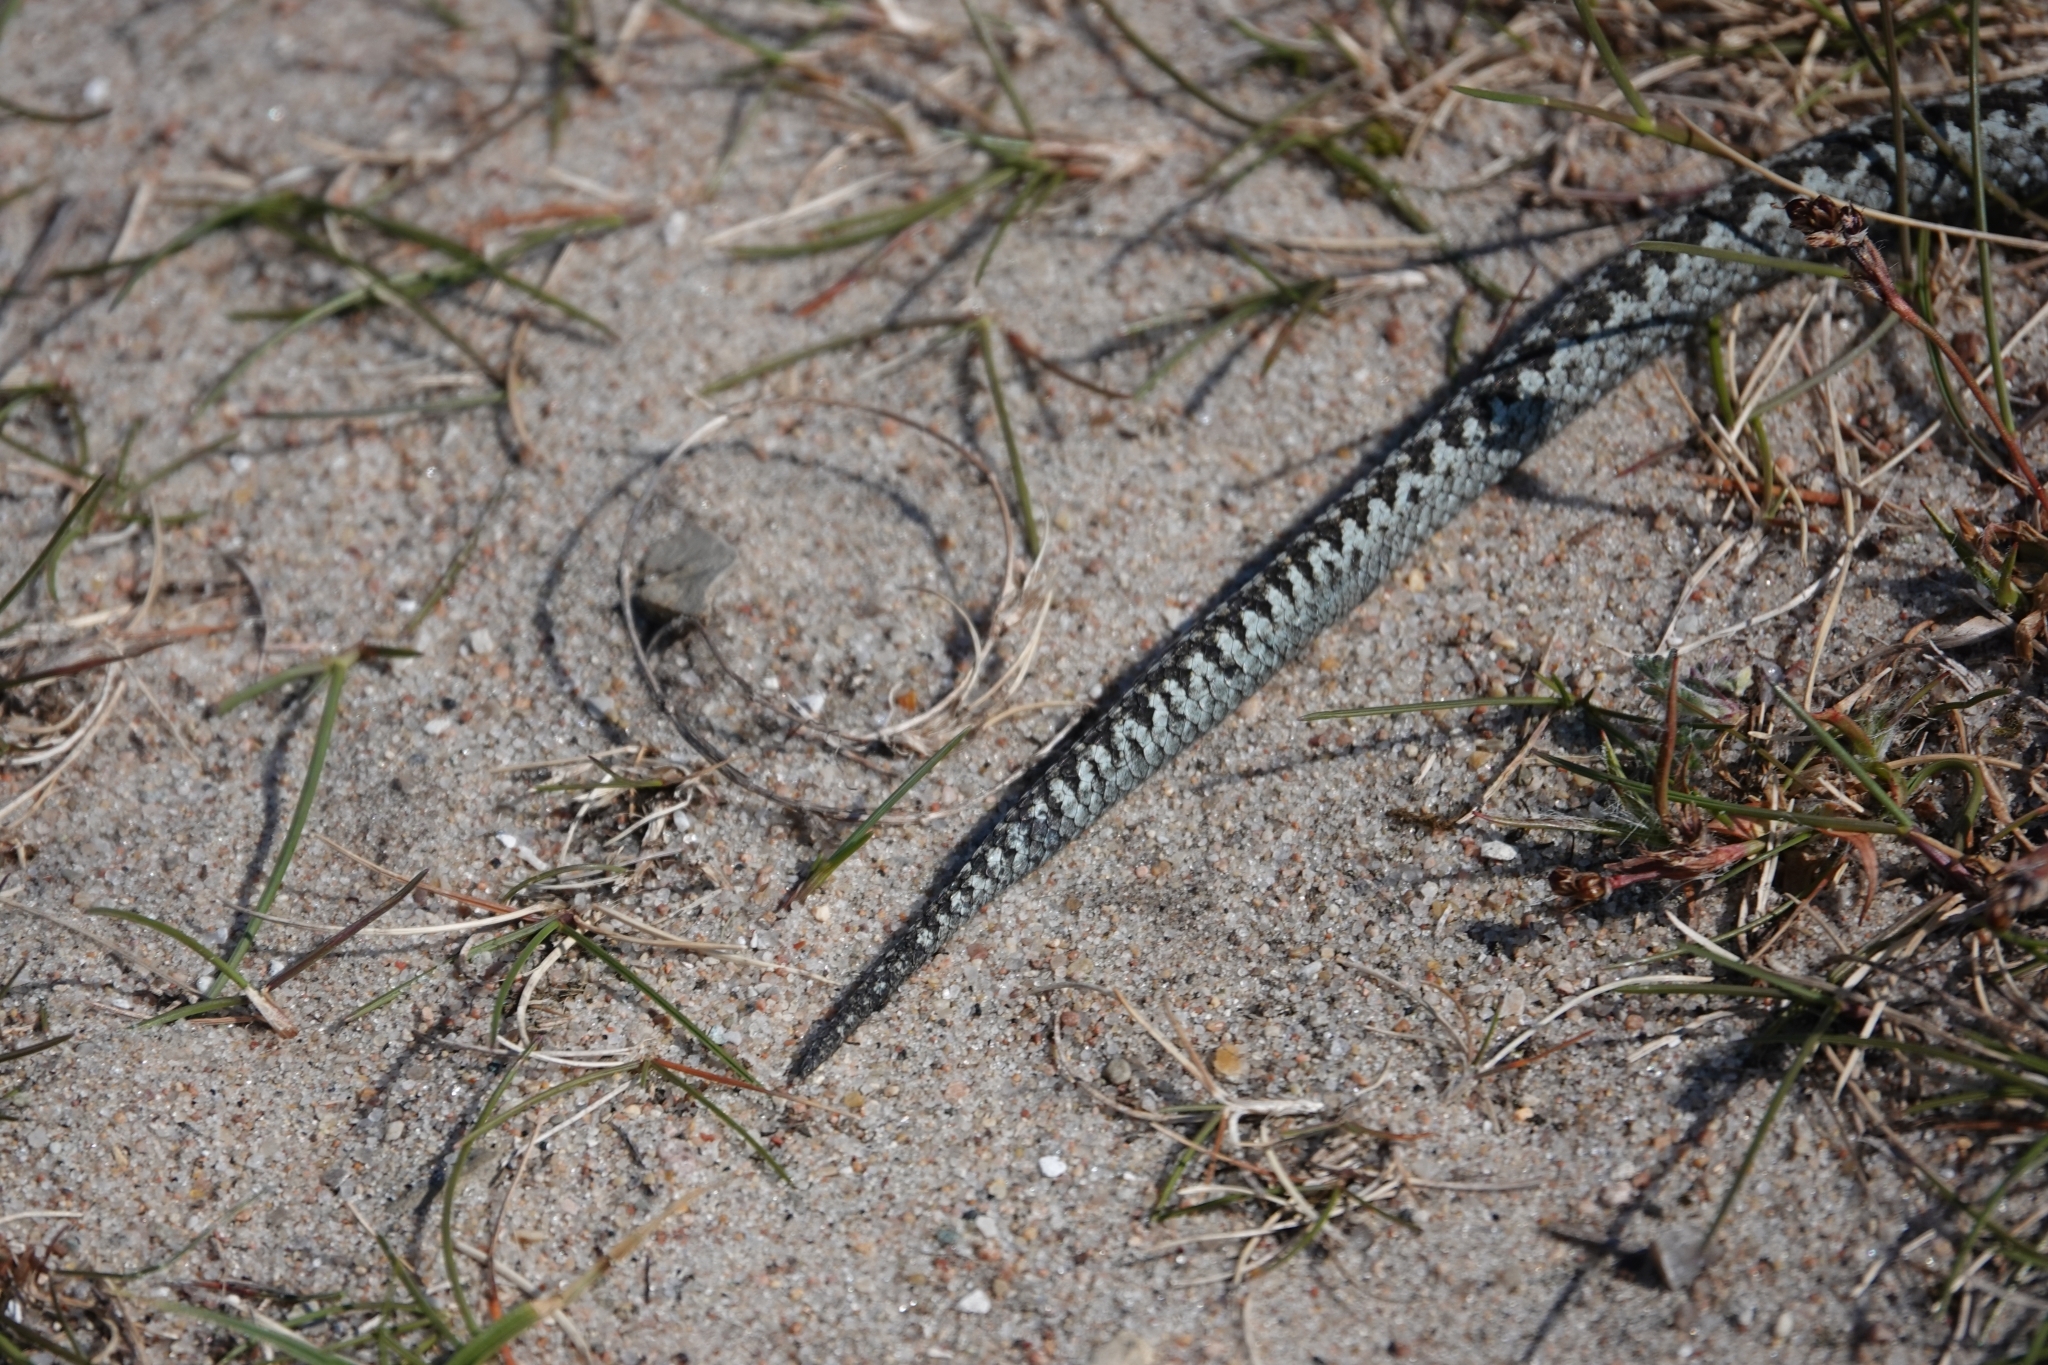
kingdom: Animalia
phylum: Chordata
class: Squamata
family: Viperidae
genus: Vipera
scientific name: Vipera berus
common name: Adder
